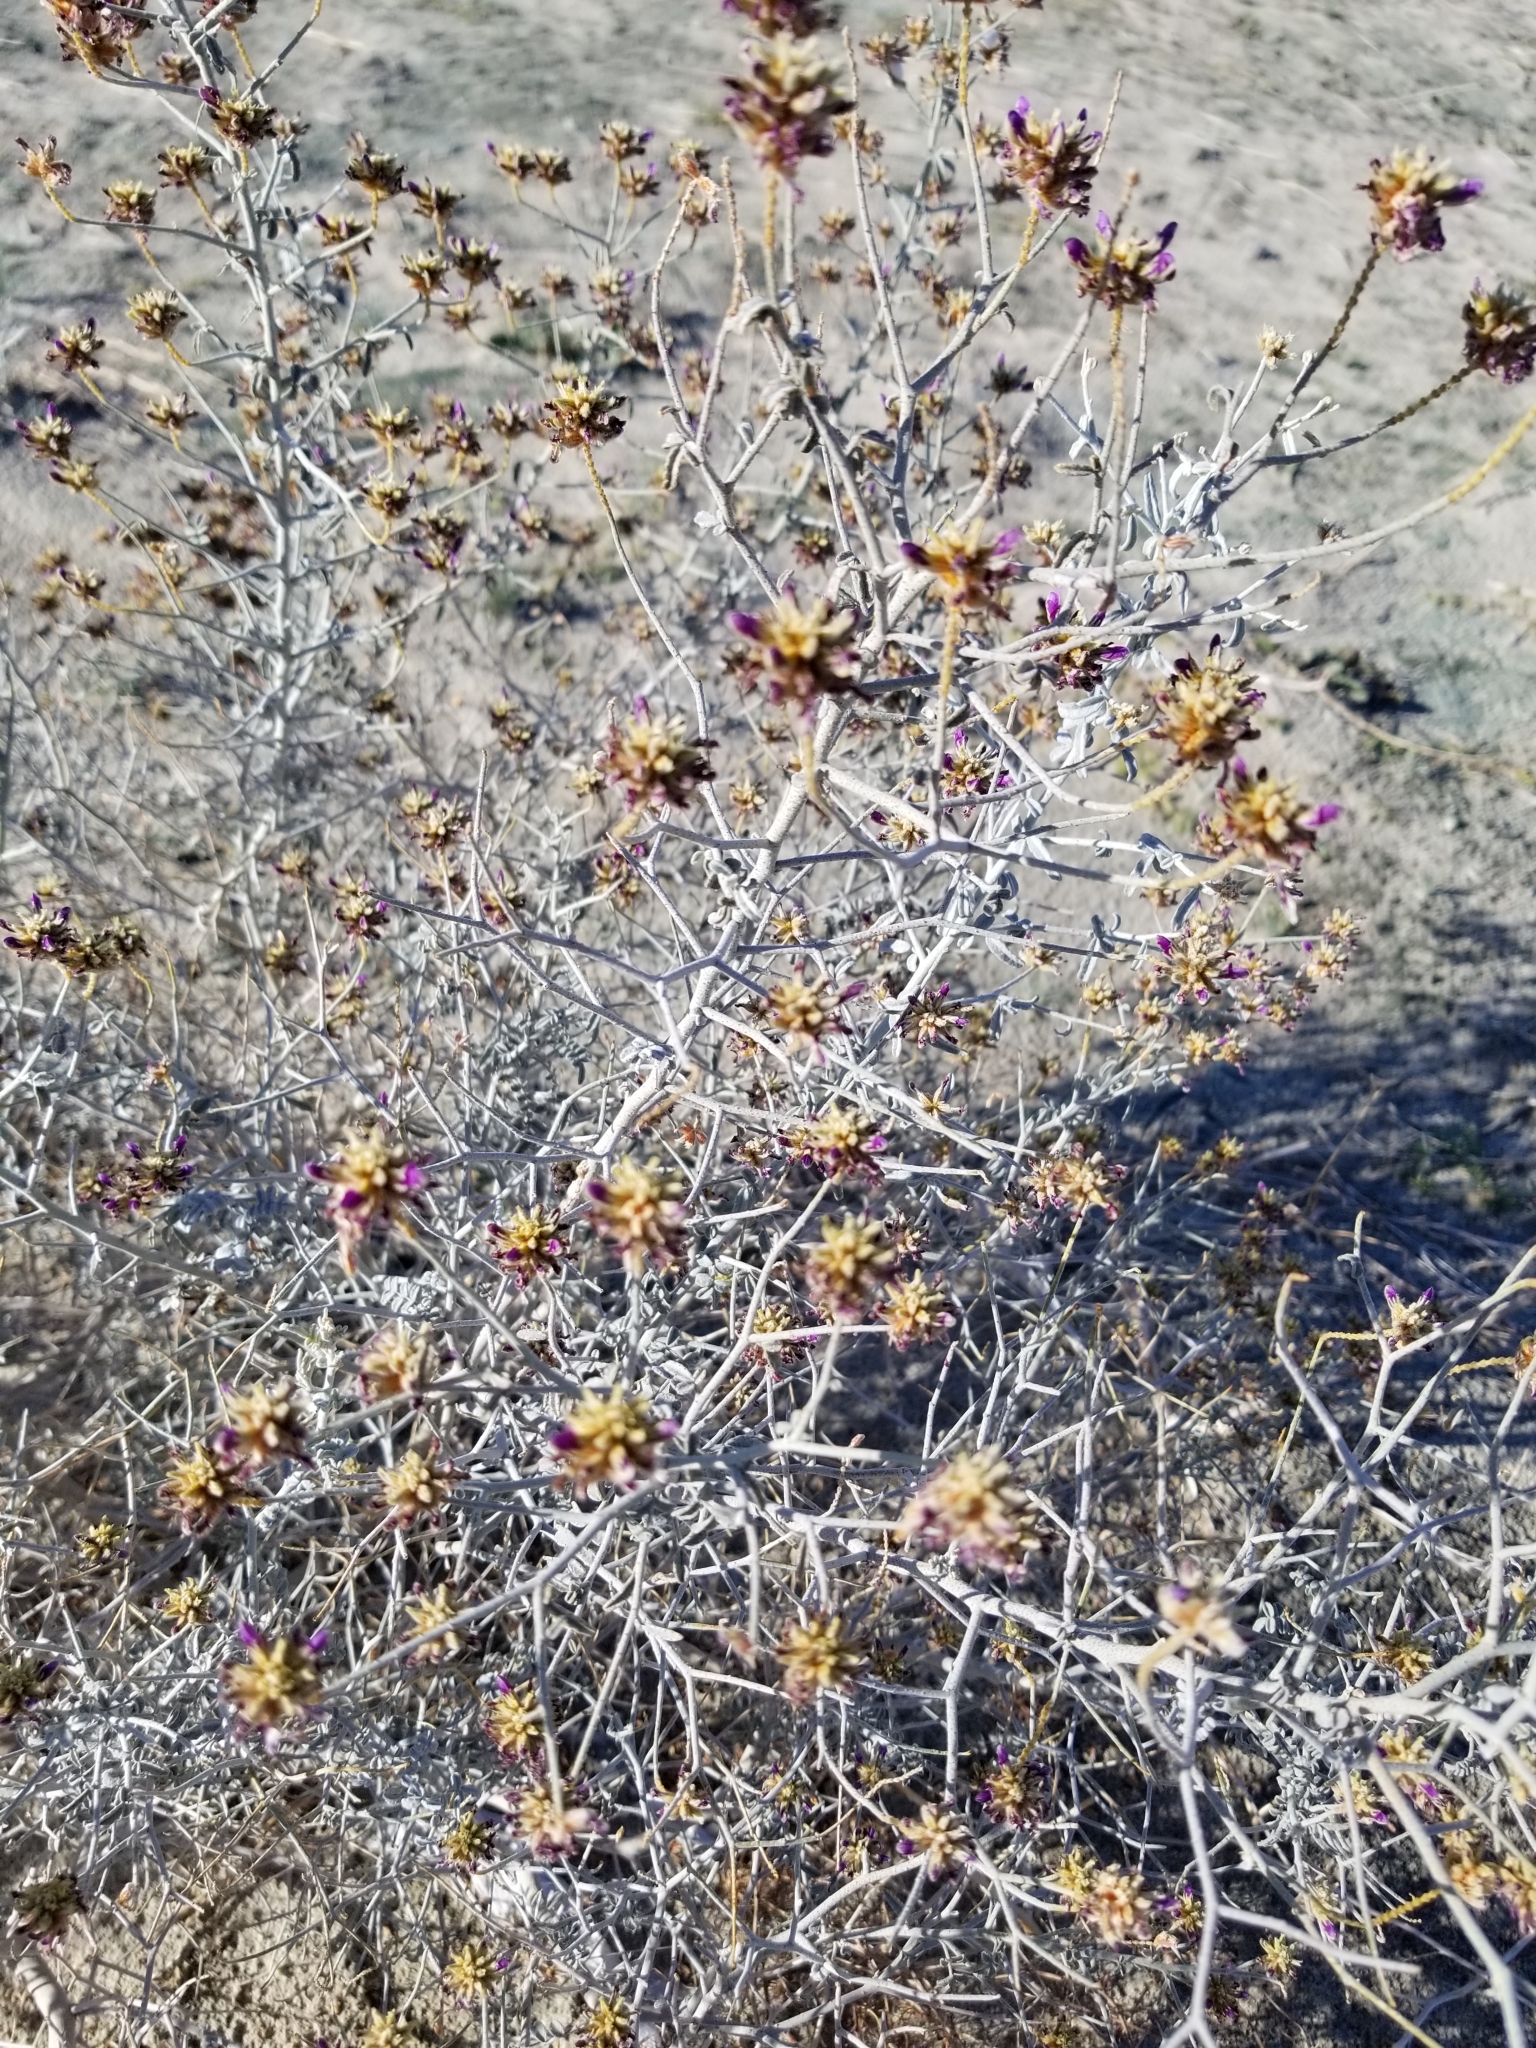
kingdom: Plantae
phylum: Tracheophyta
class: Magnoliopsida
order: Fabales
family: Fabaceae
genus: Psorothamnus
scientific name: Psorothamnus emoryi
